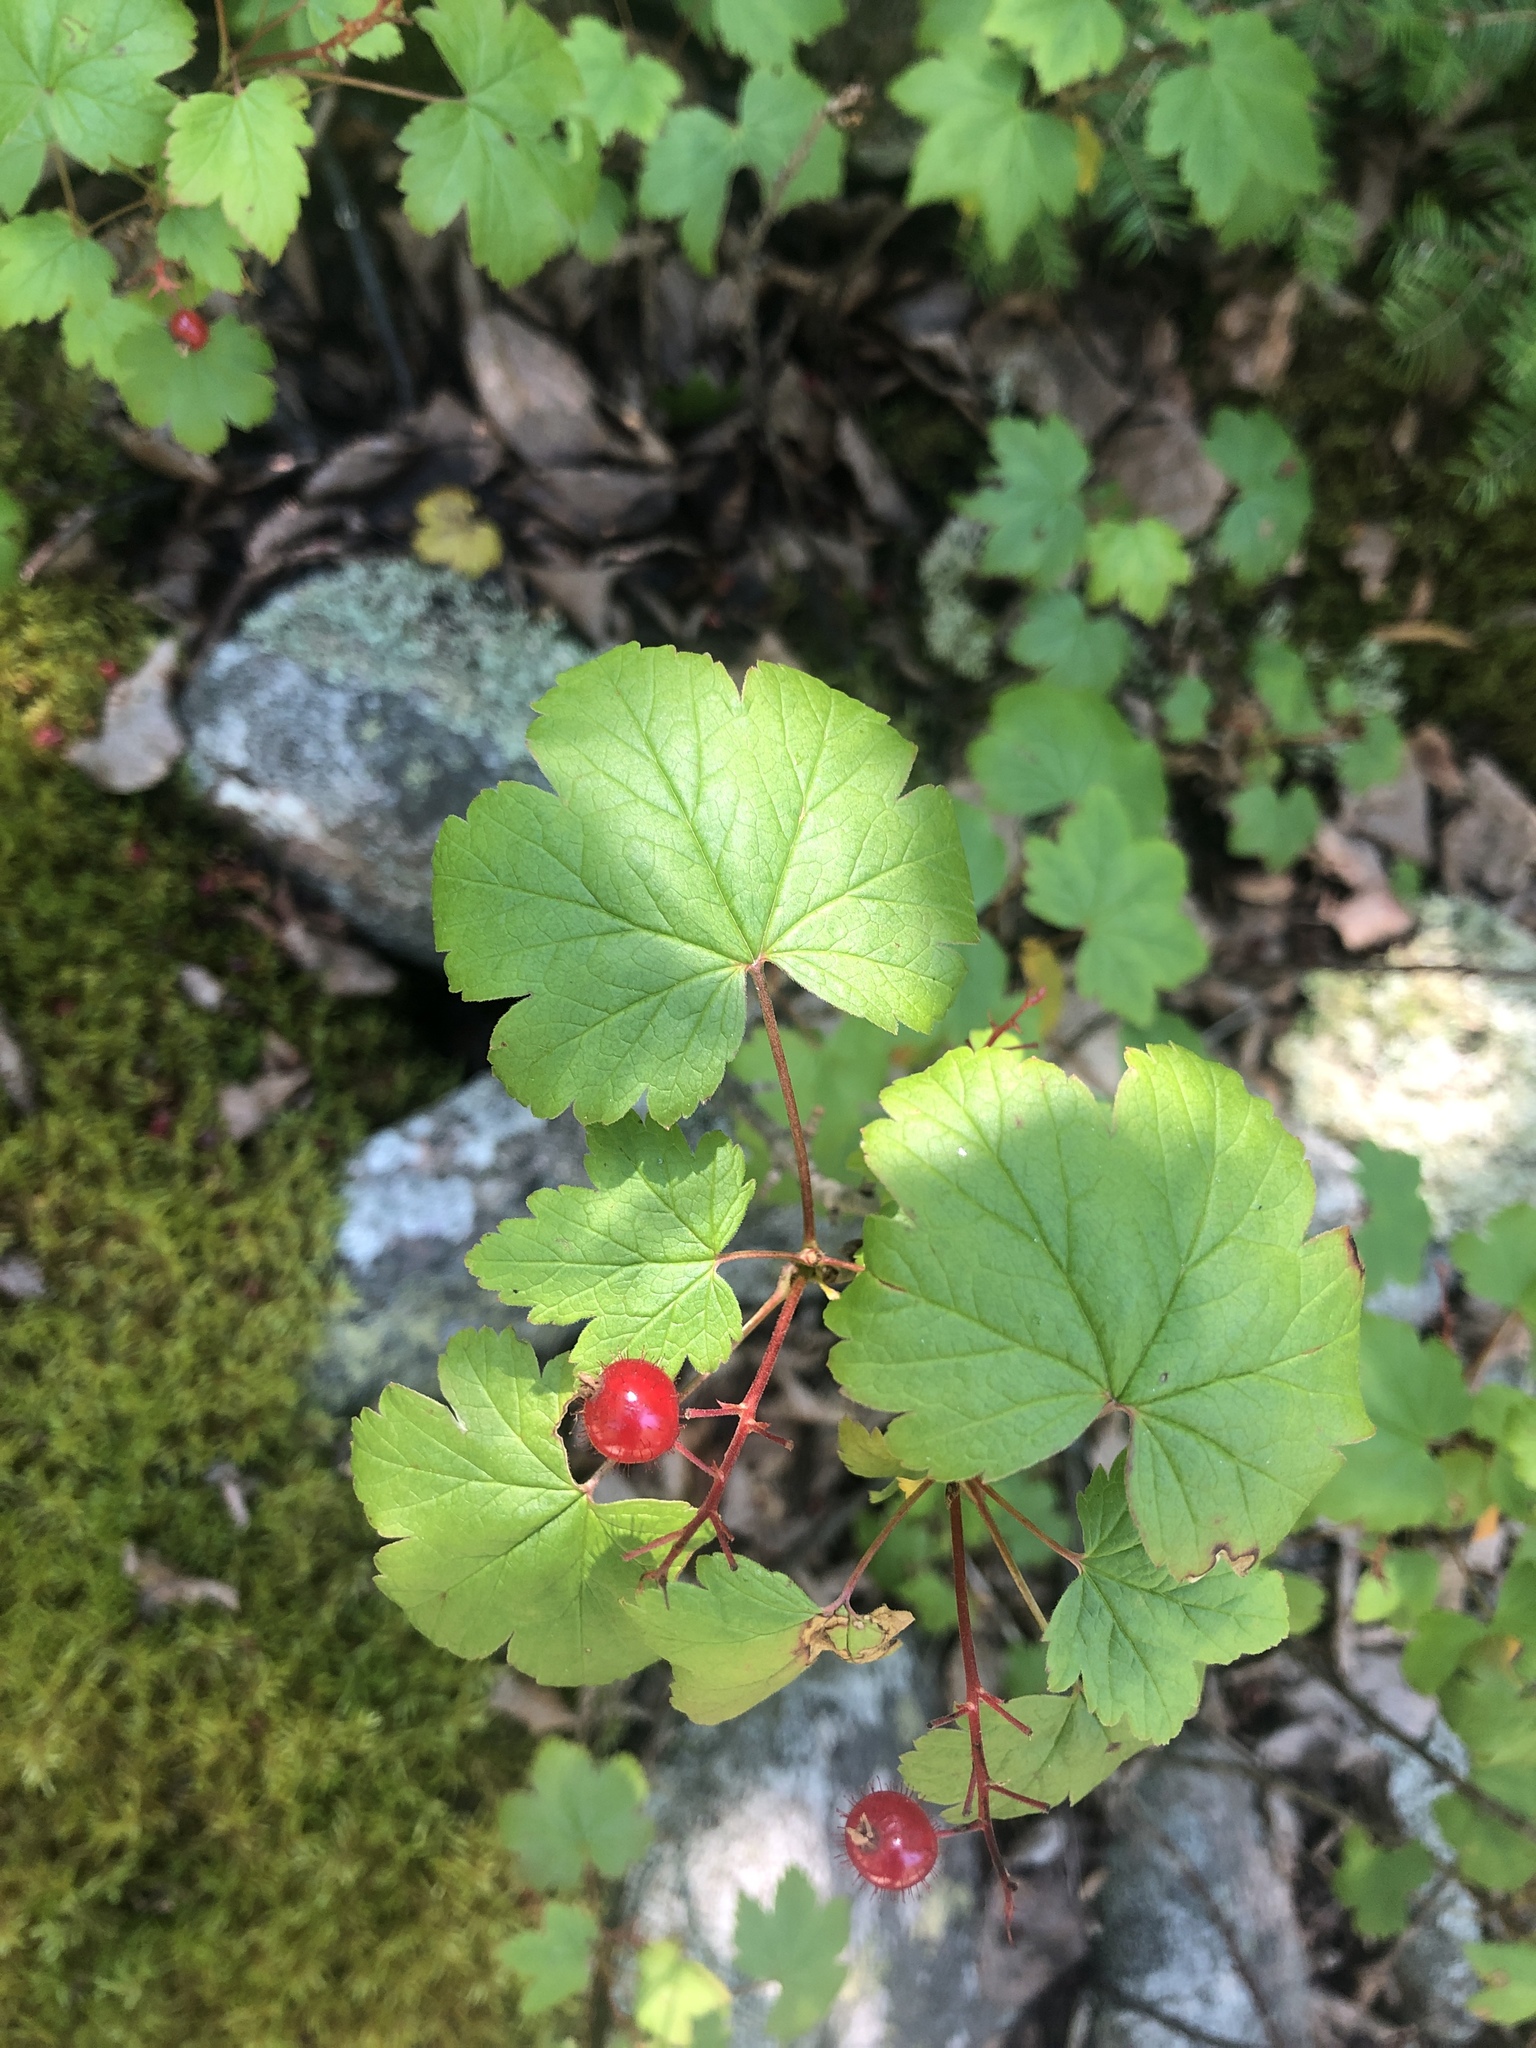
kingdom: Plantae
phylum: Tracheophyta
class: Magnoliopsida
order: Saxifragales
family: Grossulariaceae
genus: Ribes
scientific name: Ribes glandulosum
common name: Skunk currant
